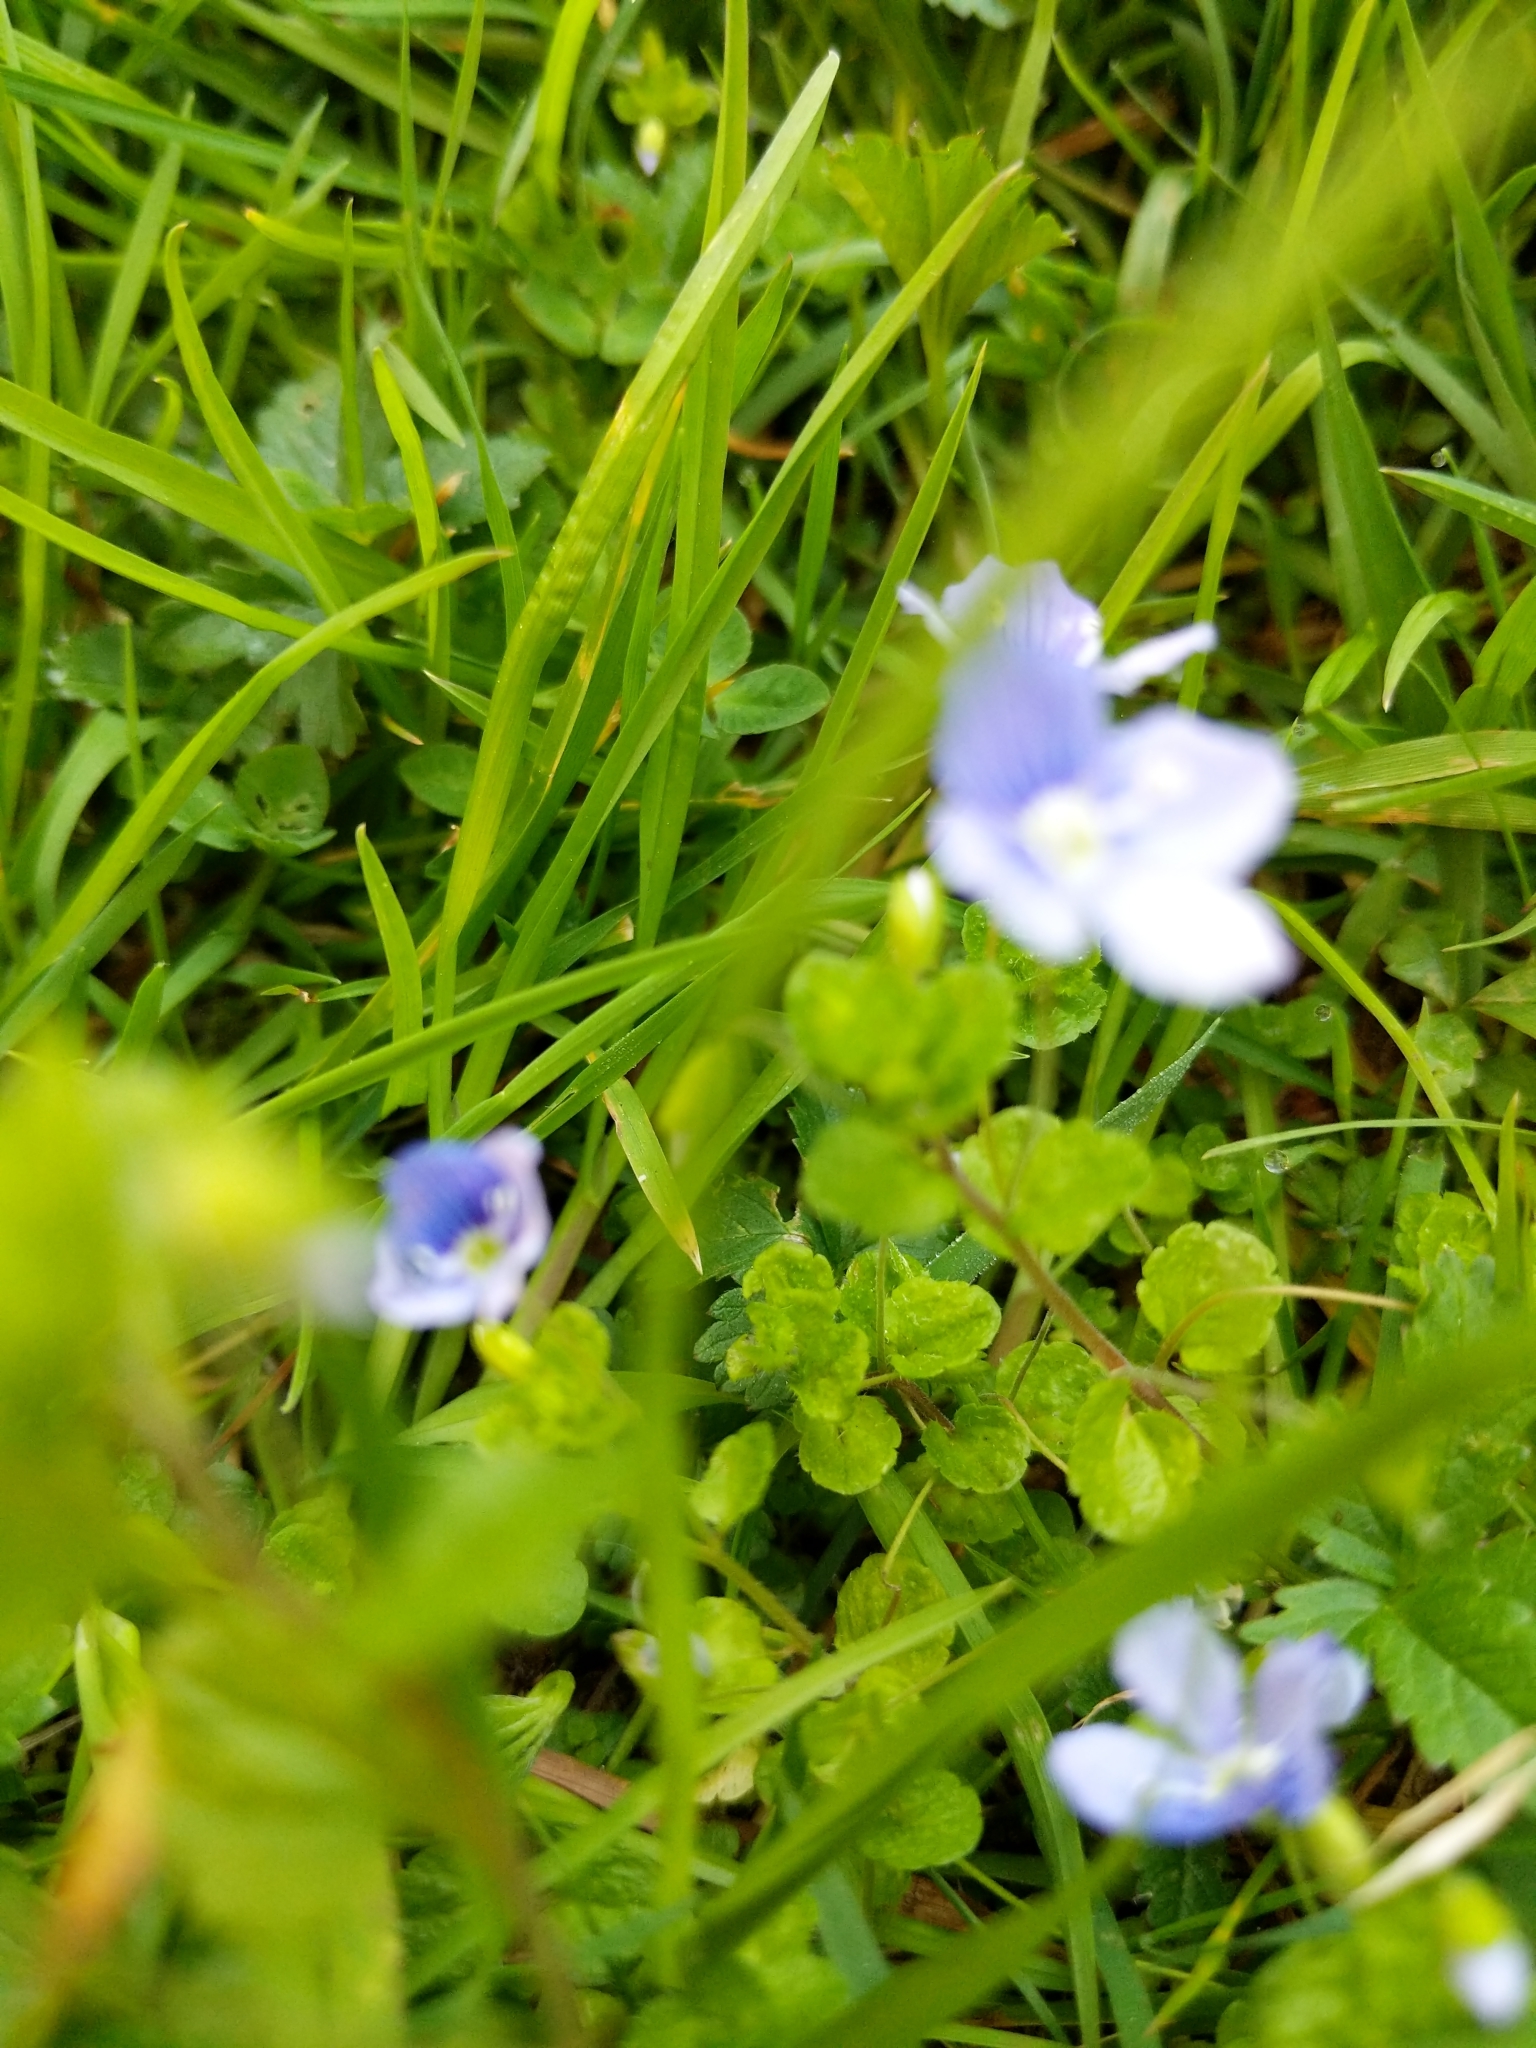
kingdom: Plantae
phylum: Tracheophyta
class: Magnoliopsida
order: Lamiales
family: Plantaginaceae
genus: Veronica
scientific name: Veronica filiformis
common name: Slender speedwell
